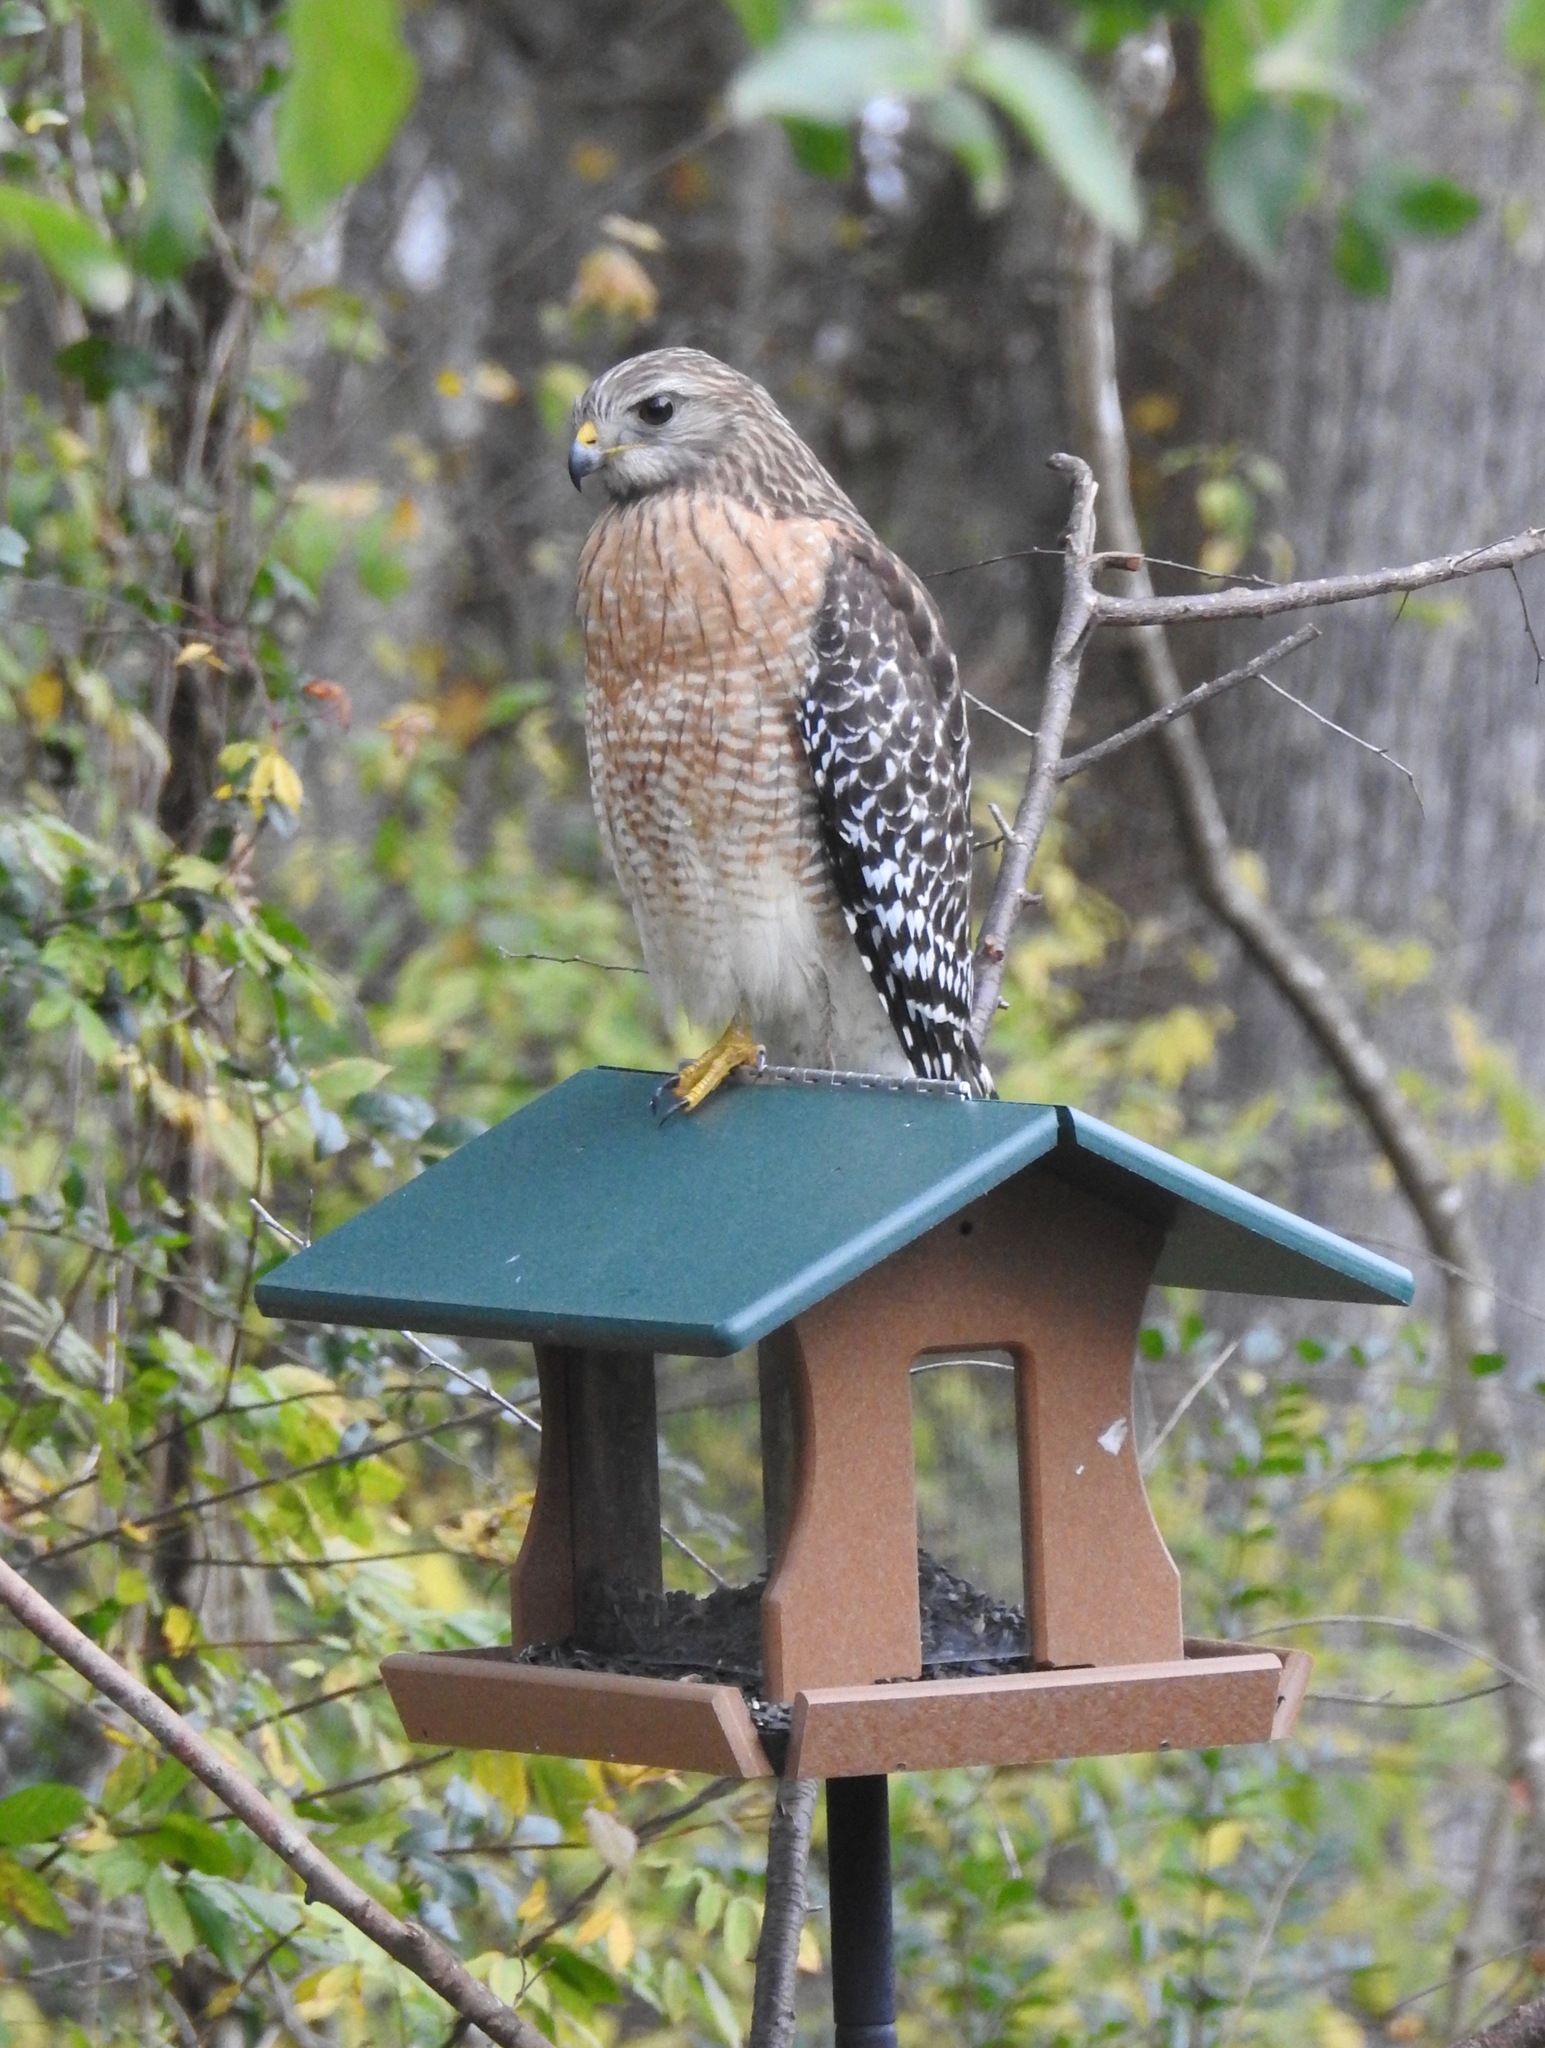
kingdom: Animalia
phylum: Chordata
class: Aves
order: Accipitriformes
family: Accipitridae
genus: Buteo
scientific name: Buteo lineatus
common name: Red-shouldered hawk
